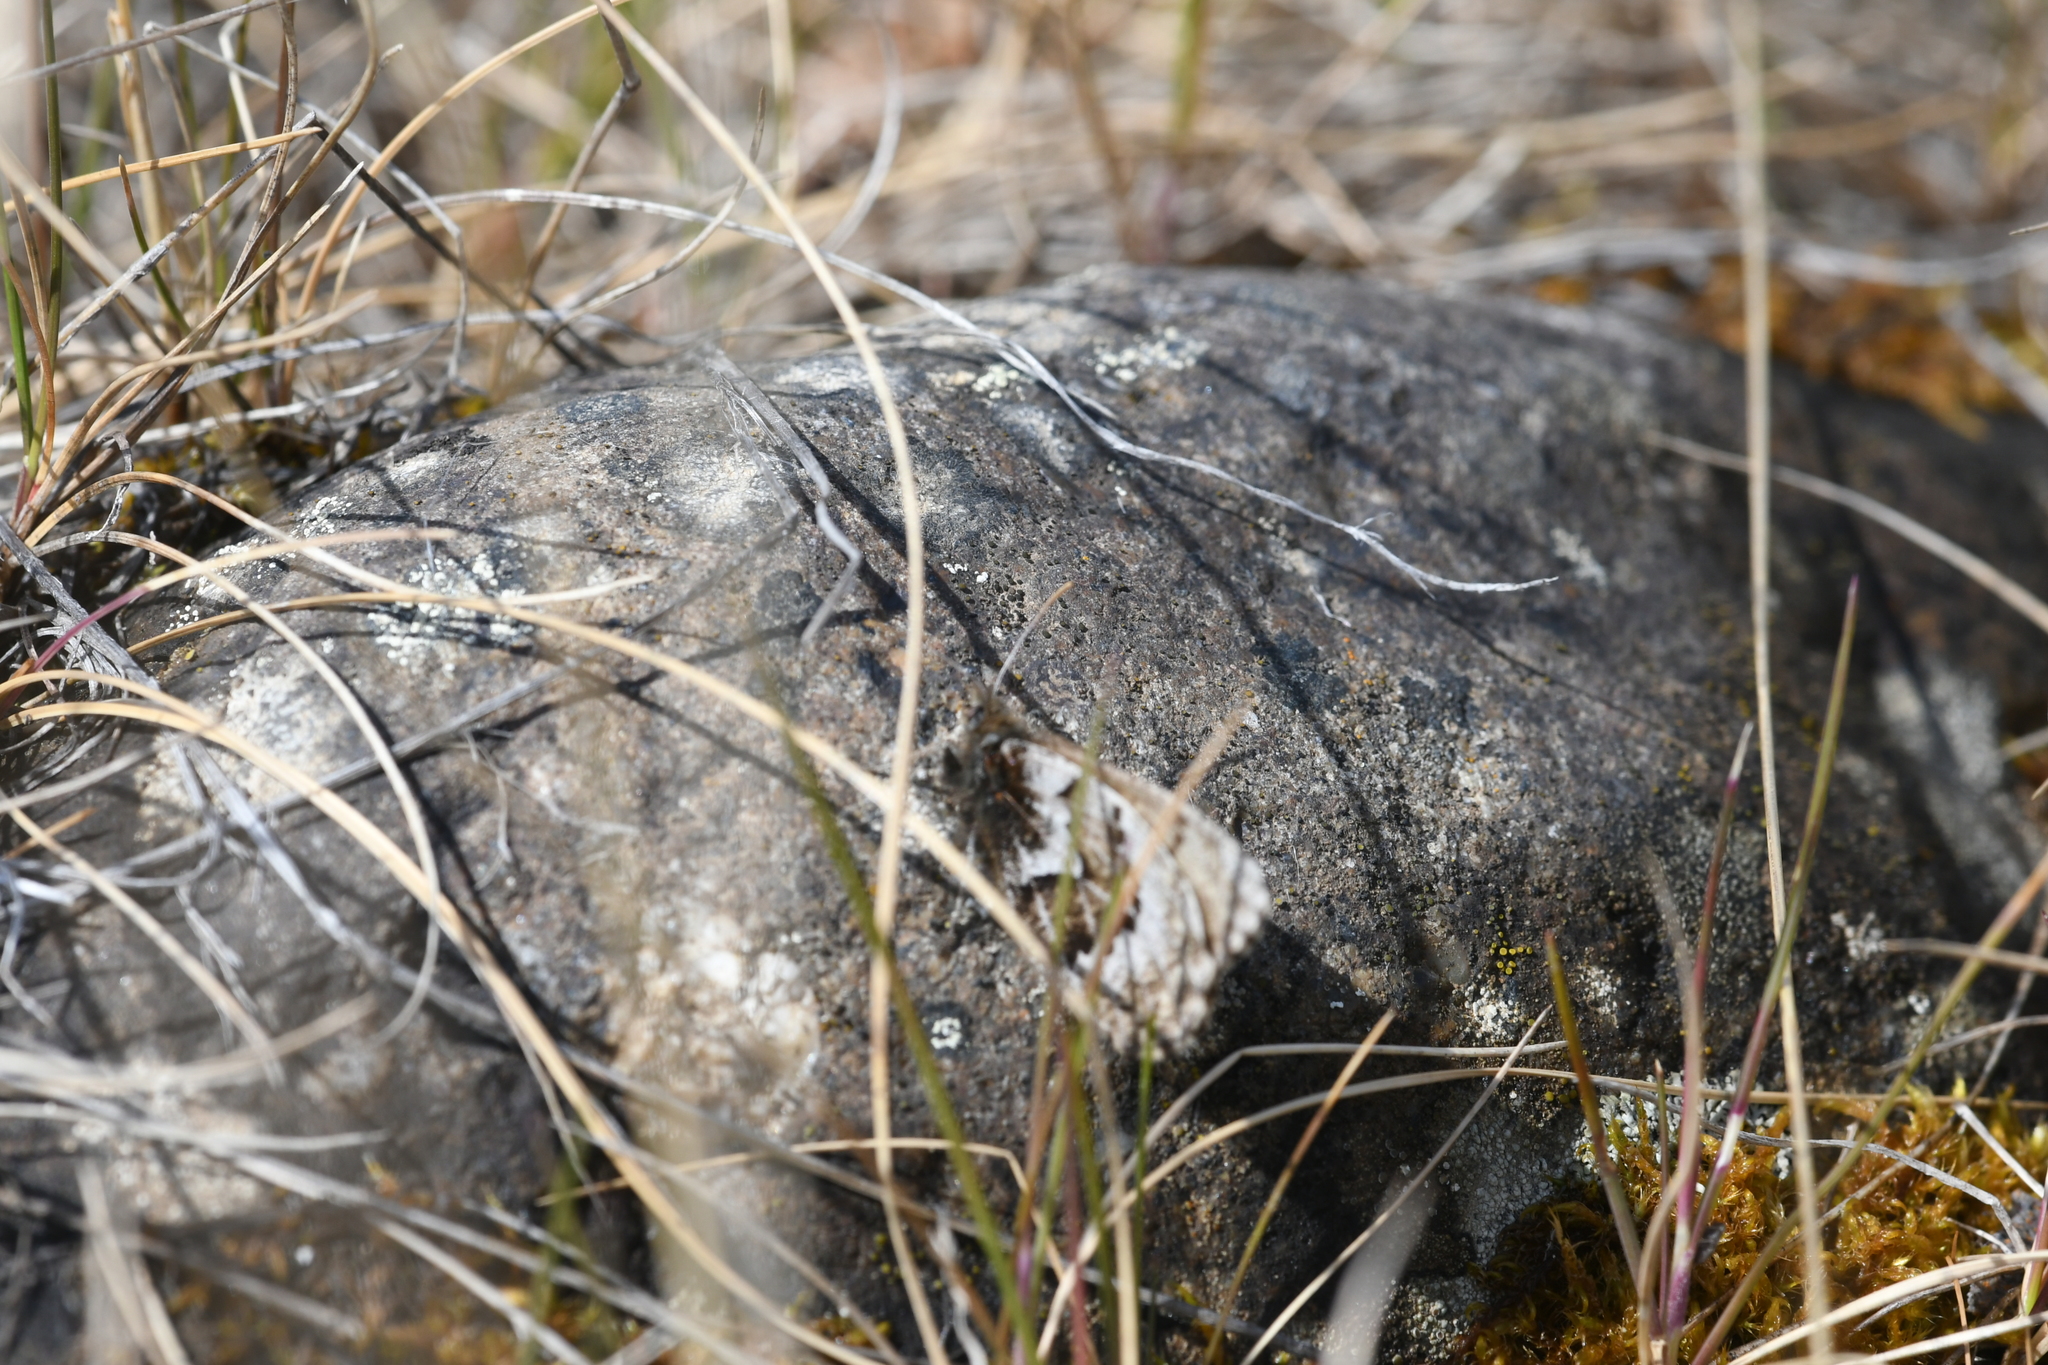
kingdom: Animalia
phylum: Arthropoda
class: Insecta
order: Lepidoptera
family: Nymphalidae
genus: Oeneis
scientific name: Oeneis bore
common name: Arctic grayling
